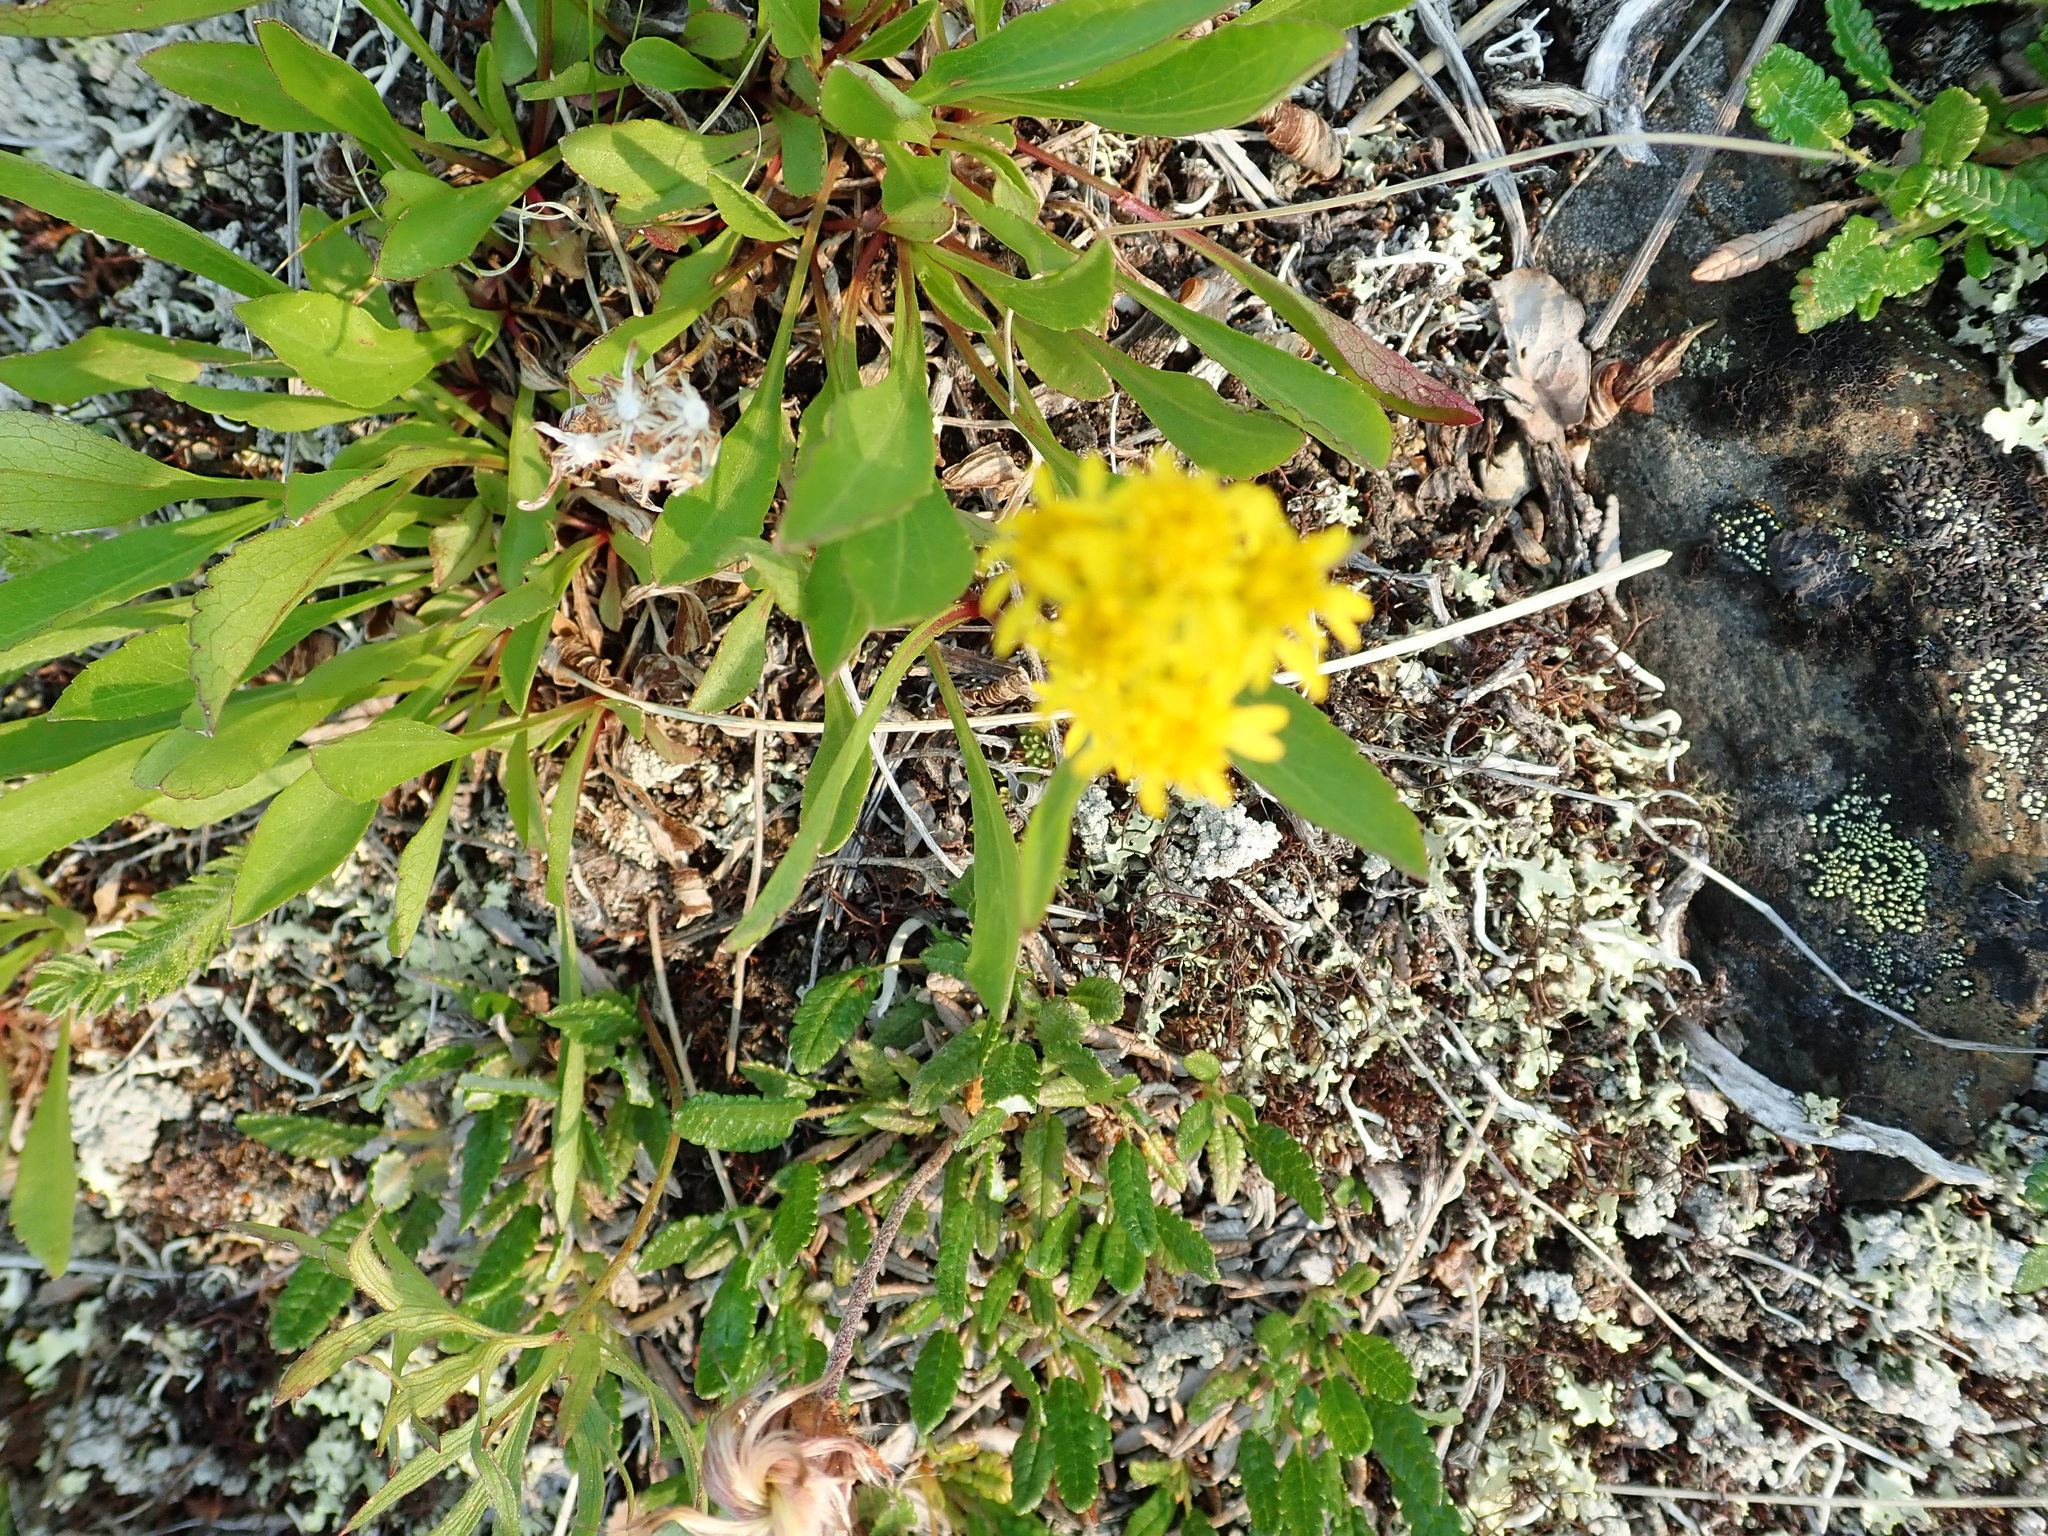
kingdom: Plantae
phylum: Tracheophyta
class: Magnoliopsida
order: Asterales
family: Asteraceae
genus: Solidago
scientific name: Solidago glutinosa
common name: Decumbent goldenrod
